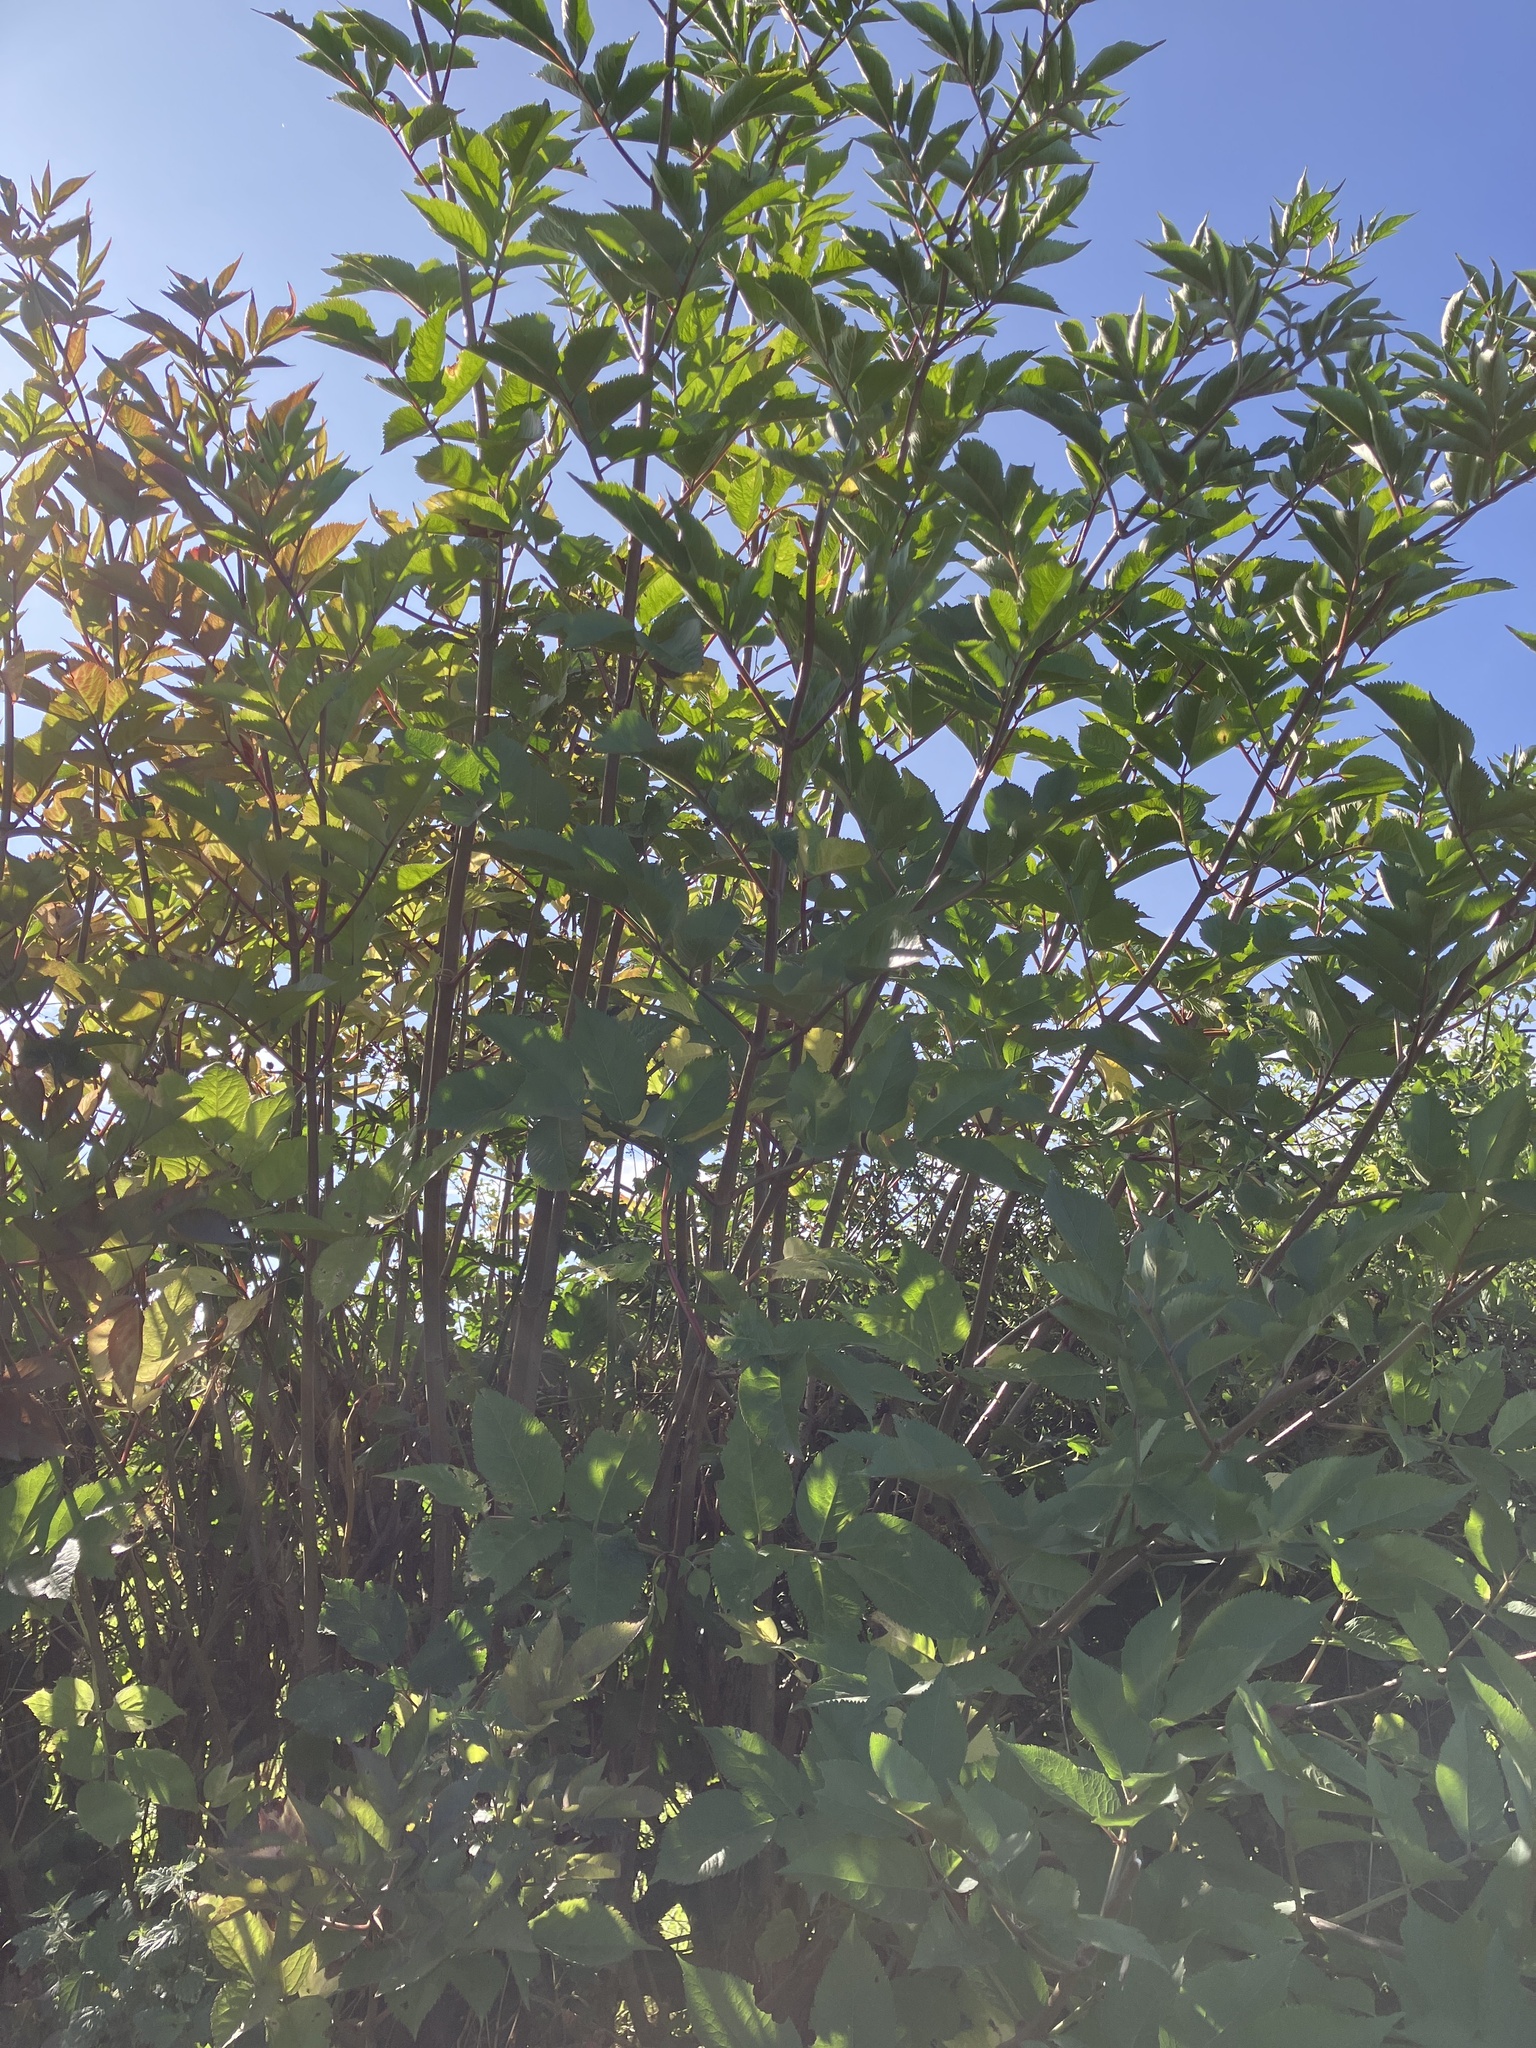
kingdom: Plantae
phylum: Tracheophyta
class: Magnoliopsida
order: Dipsacales
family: Viburnaceae
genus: Sambucus
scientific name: Sambucus nigra
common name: Elder
